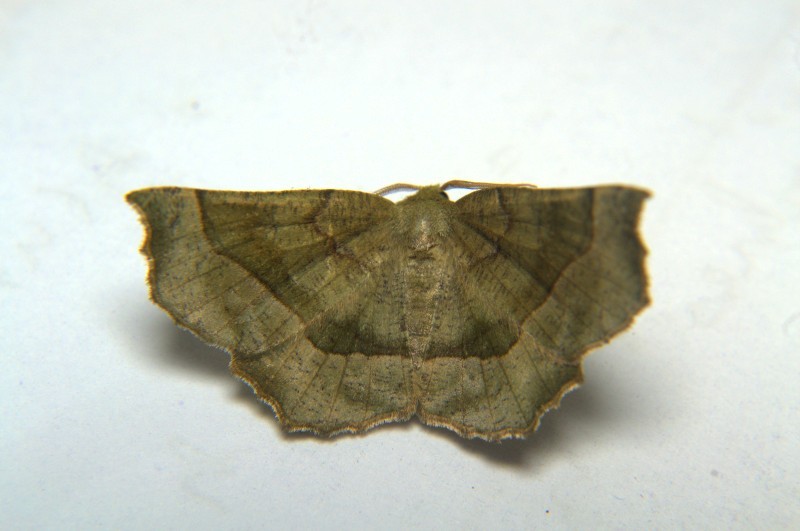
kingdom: Animalia
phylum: Arthropoda
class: Insecta
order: Lepidoptera
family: Geometridae
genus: Mimochroa
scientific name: Mimochroa gynopteridia
